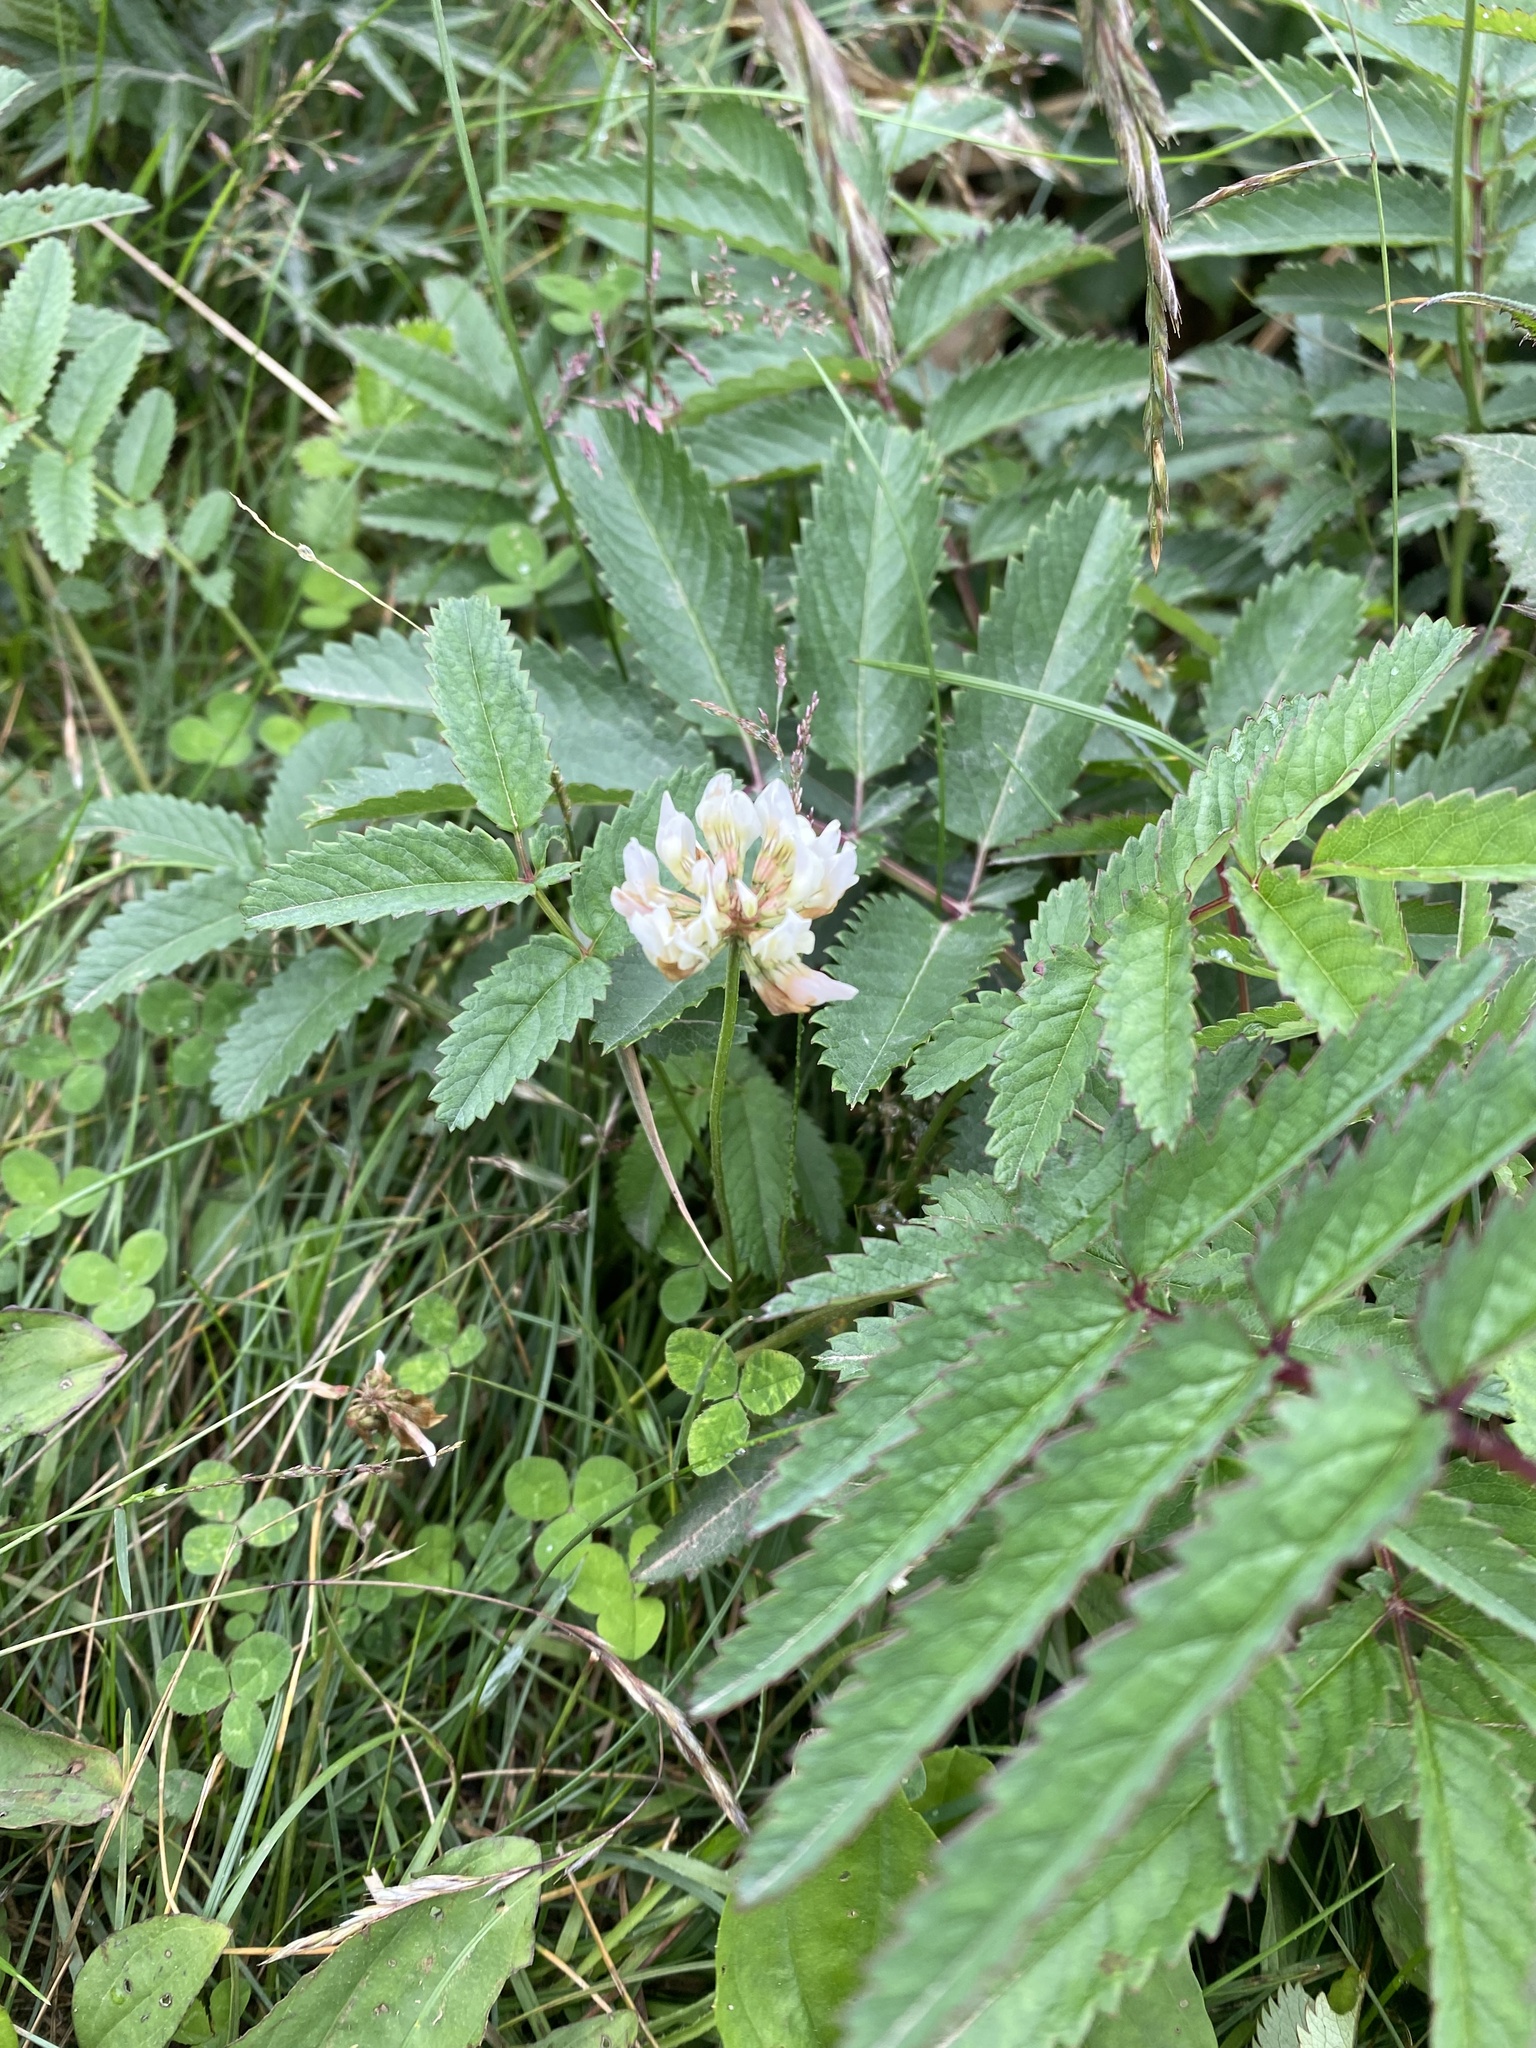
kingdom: Plantae
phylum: Tracheophyta
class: Magnoliopsida
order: Fabales
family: Fabaceae
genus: Trifolium
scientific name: Trifolium repens
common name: White clover
